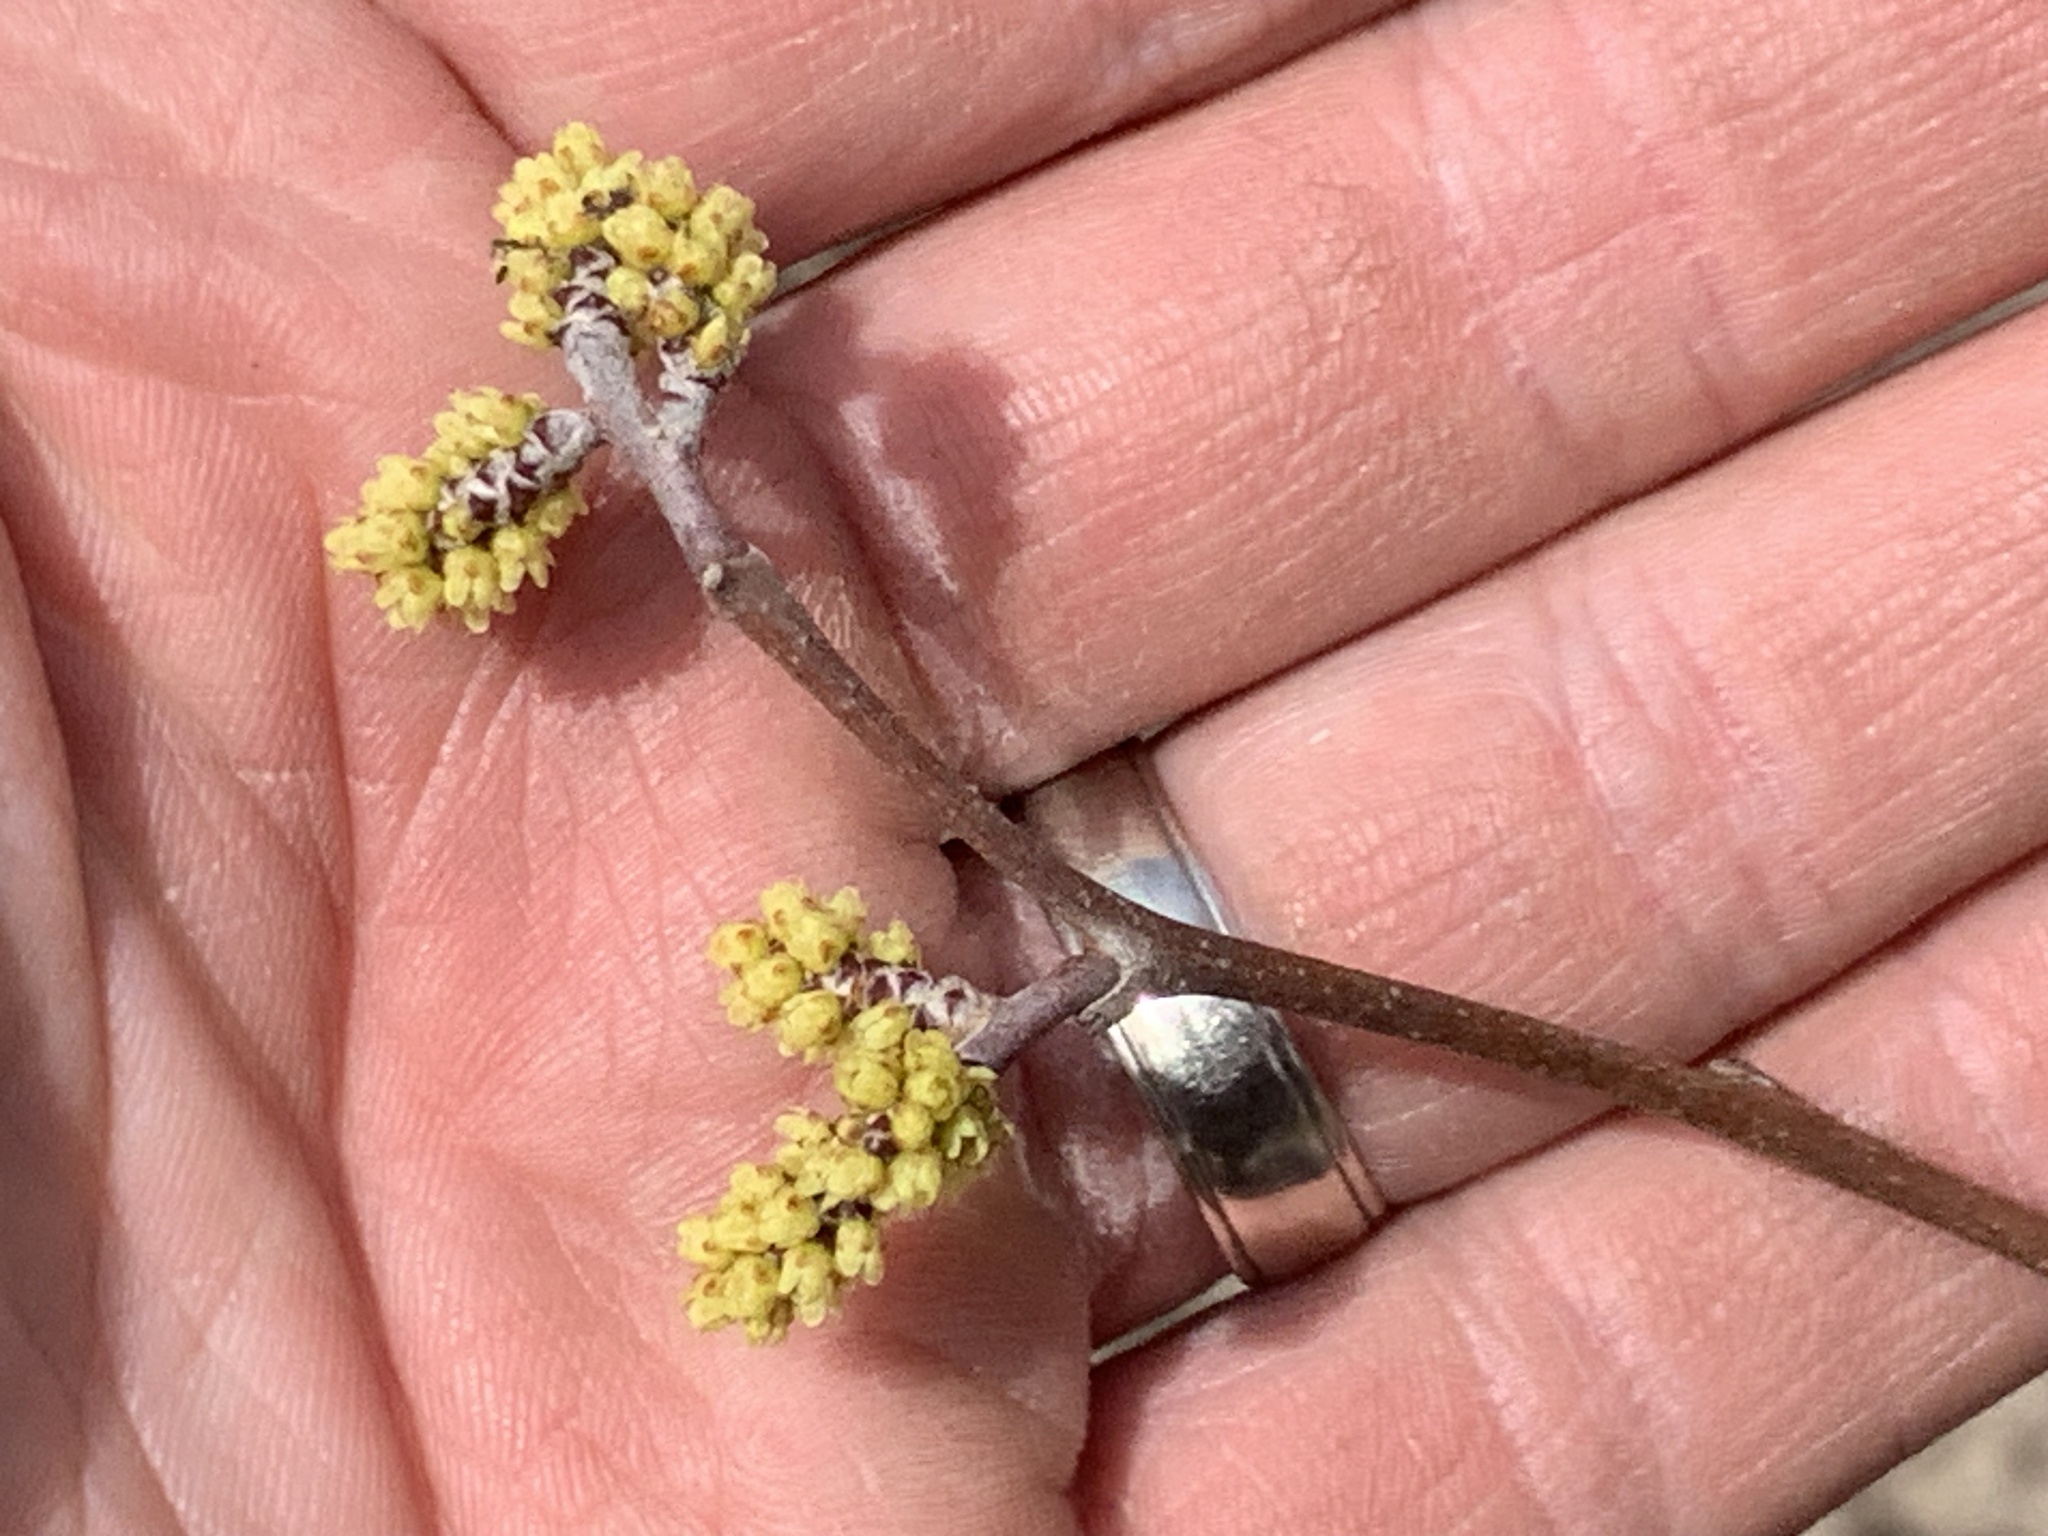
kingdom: Plantae
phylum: Tracheophyta
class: Magnoliopsida
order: Sapindales
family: Anacardiaceae
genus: Rhus
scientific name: Rhus aromatica
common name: Aromatic sumac
